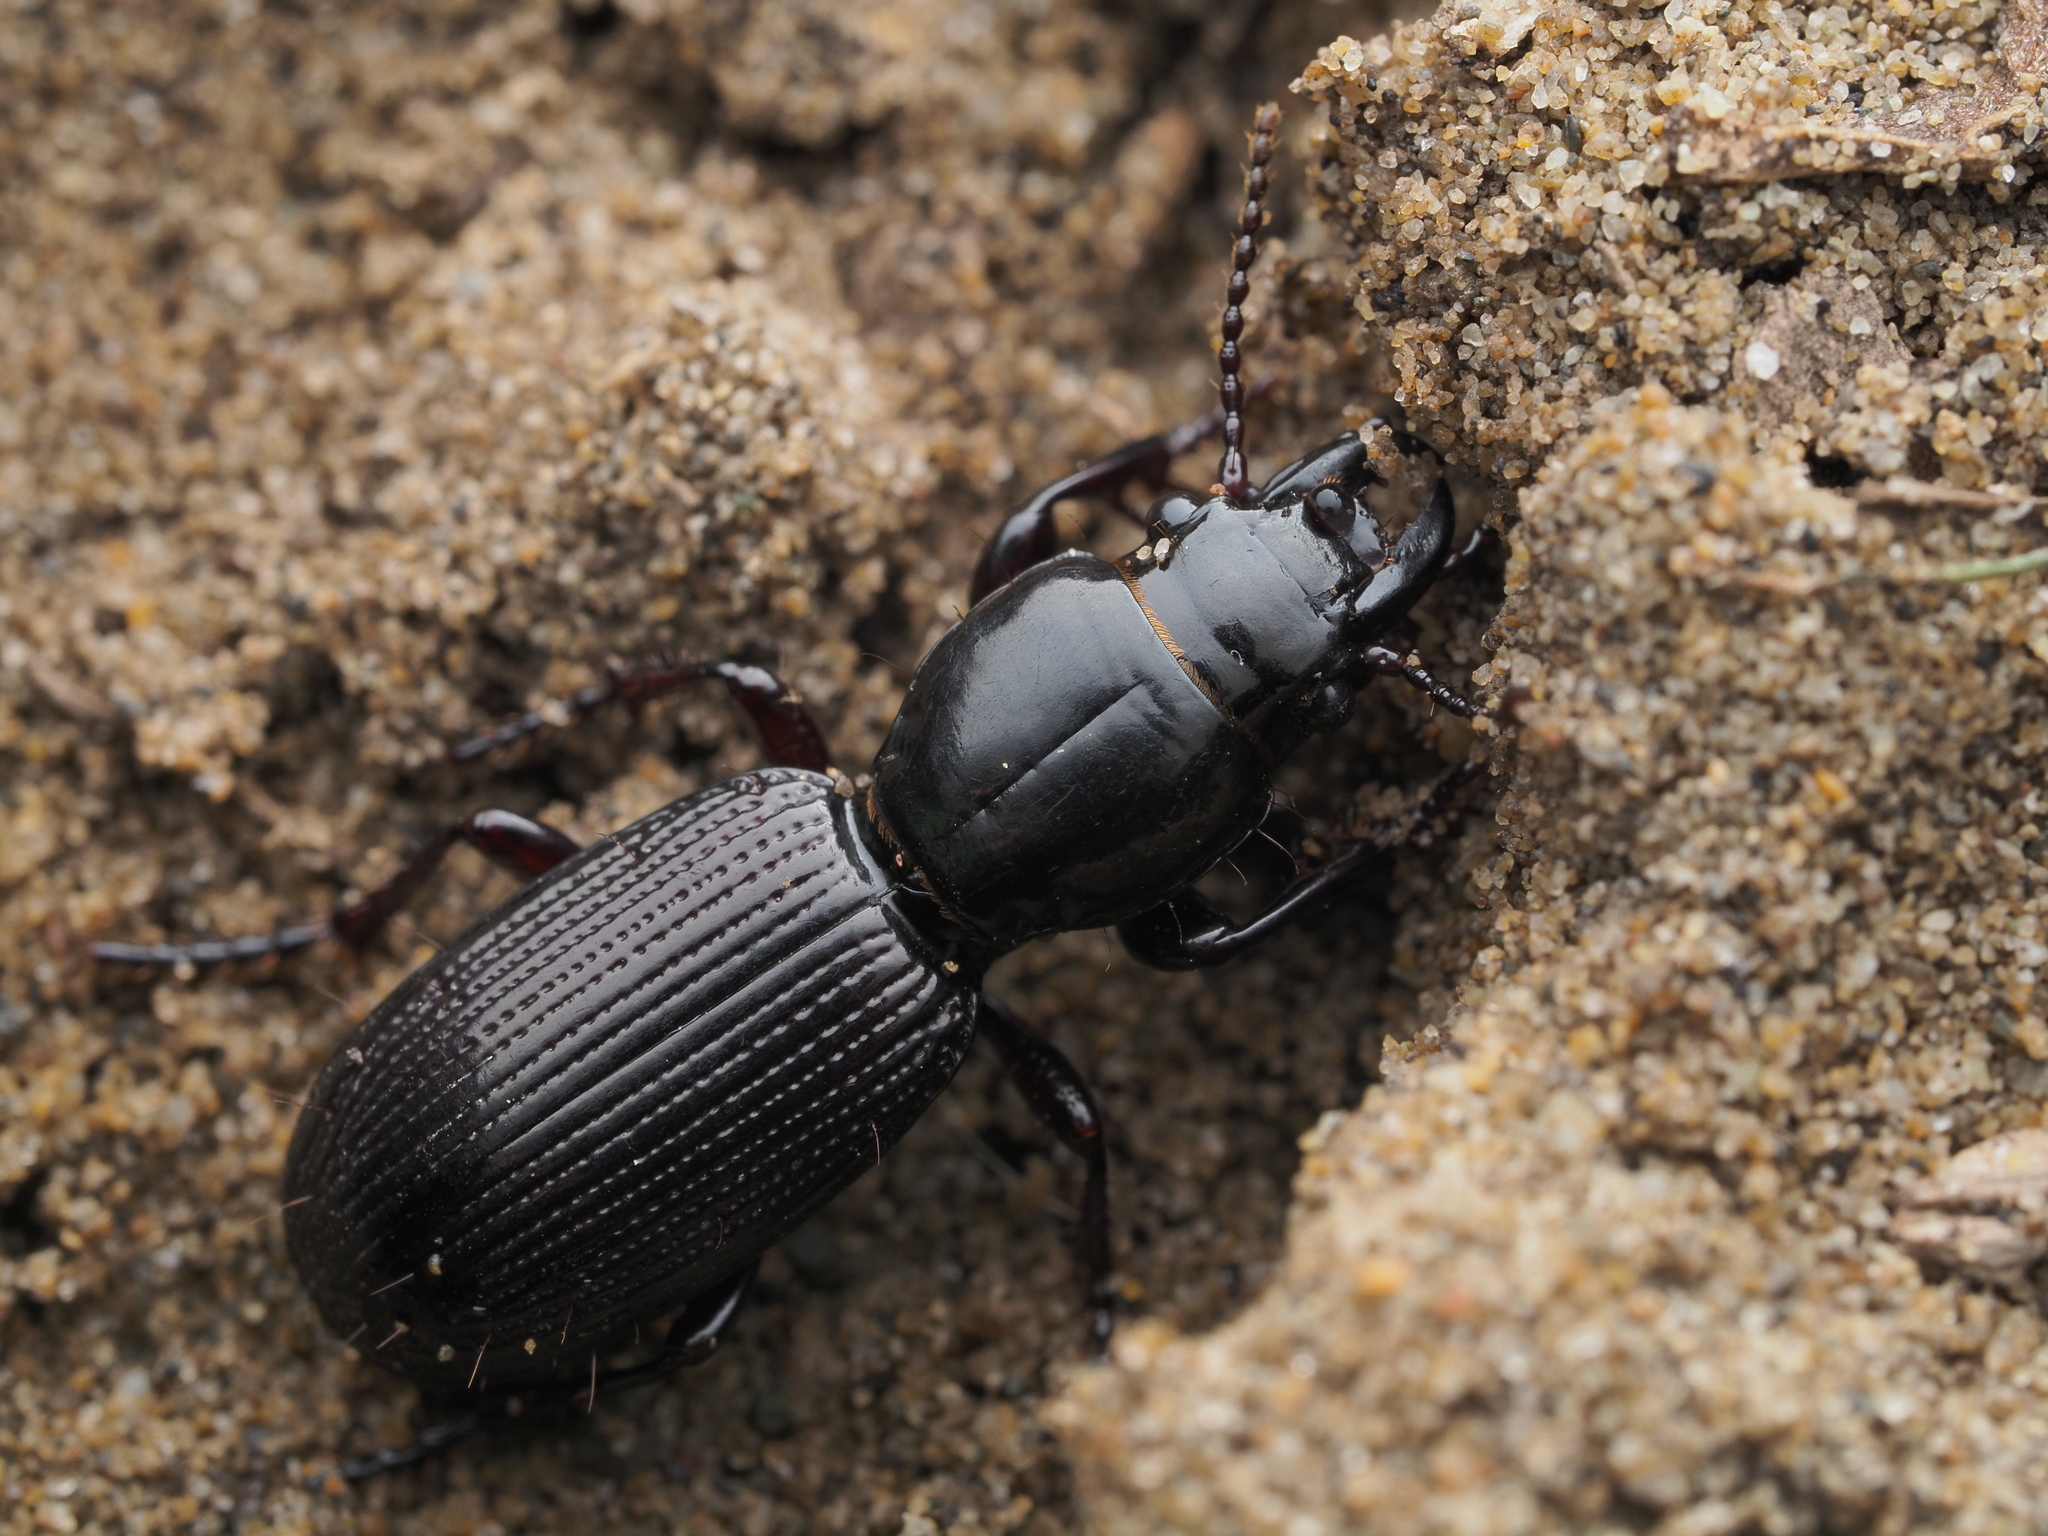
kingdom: Animalia
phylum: Arthropoda
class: Insecta
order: Coleoptera
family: Carabidae
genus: Mecodema
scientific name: Mecodema oblongum
